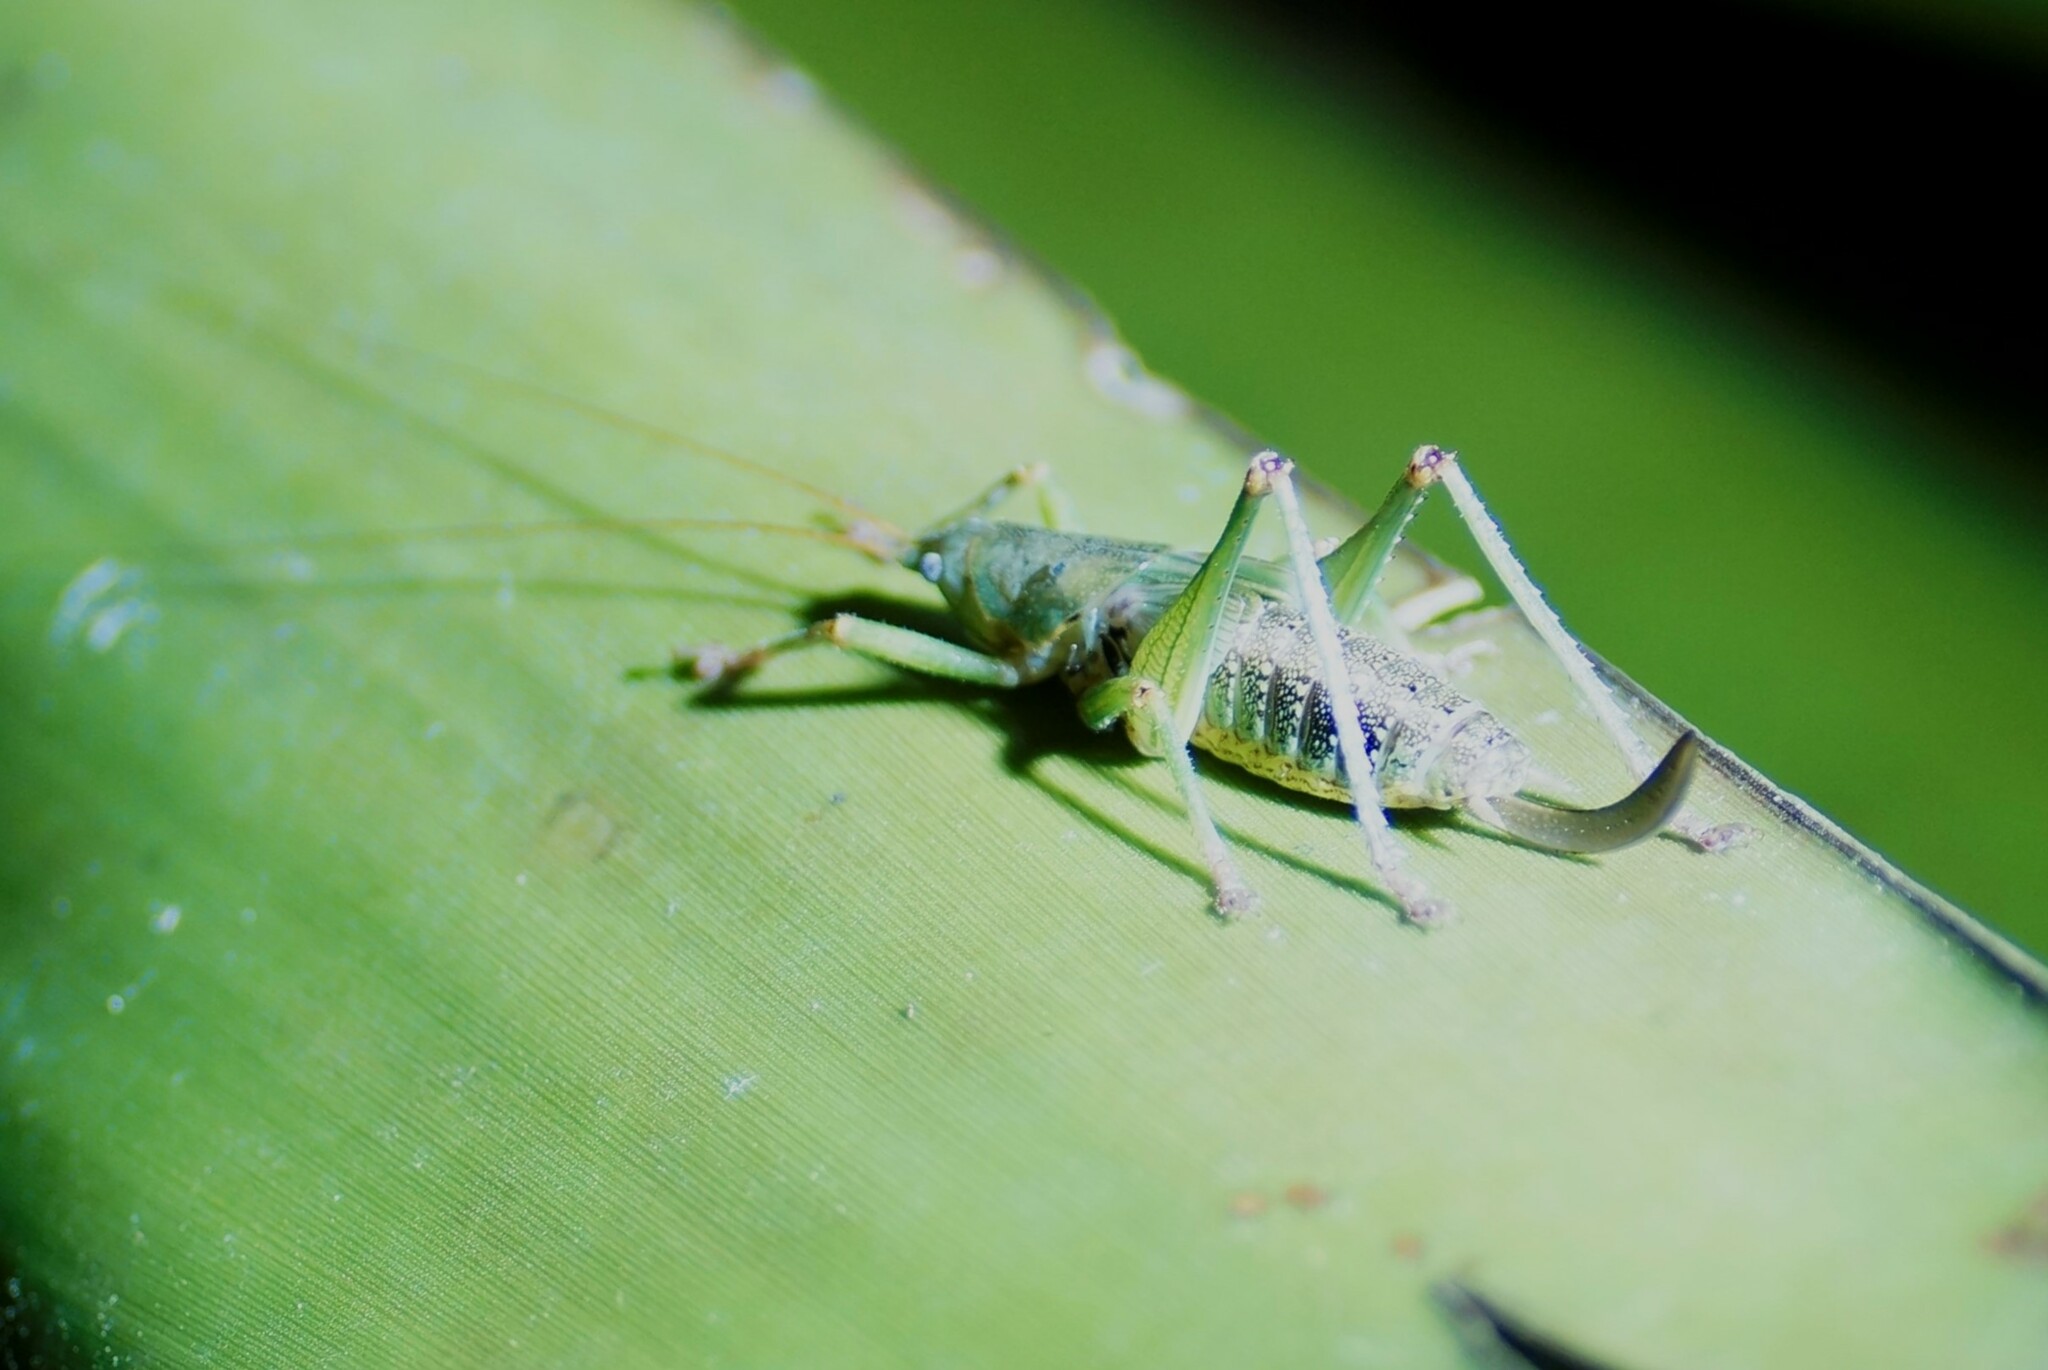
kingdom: Animalia
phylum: Arthropoda
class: Insecta
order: Orthoptera
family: Tettigoniidae
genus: Austrosalomona
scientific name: Austrosalomona destructor
